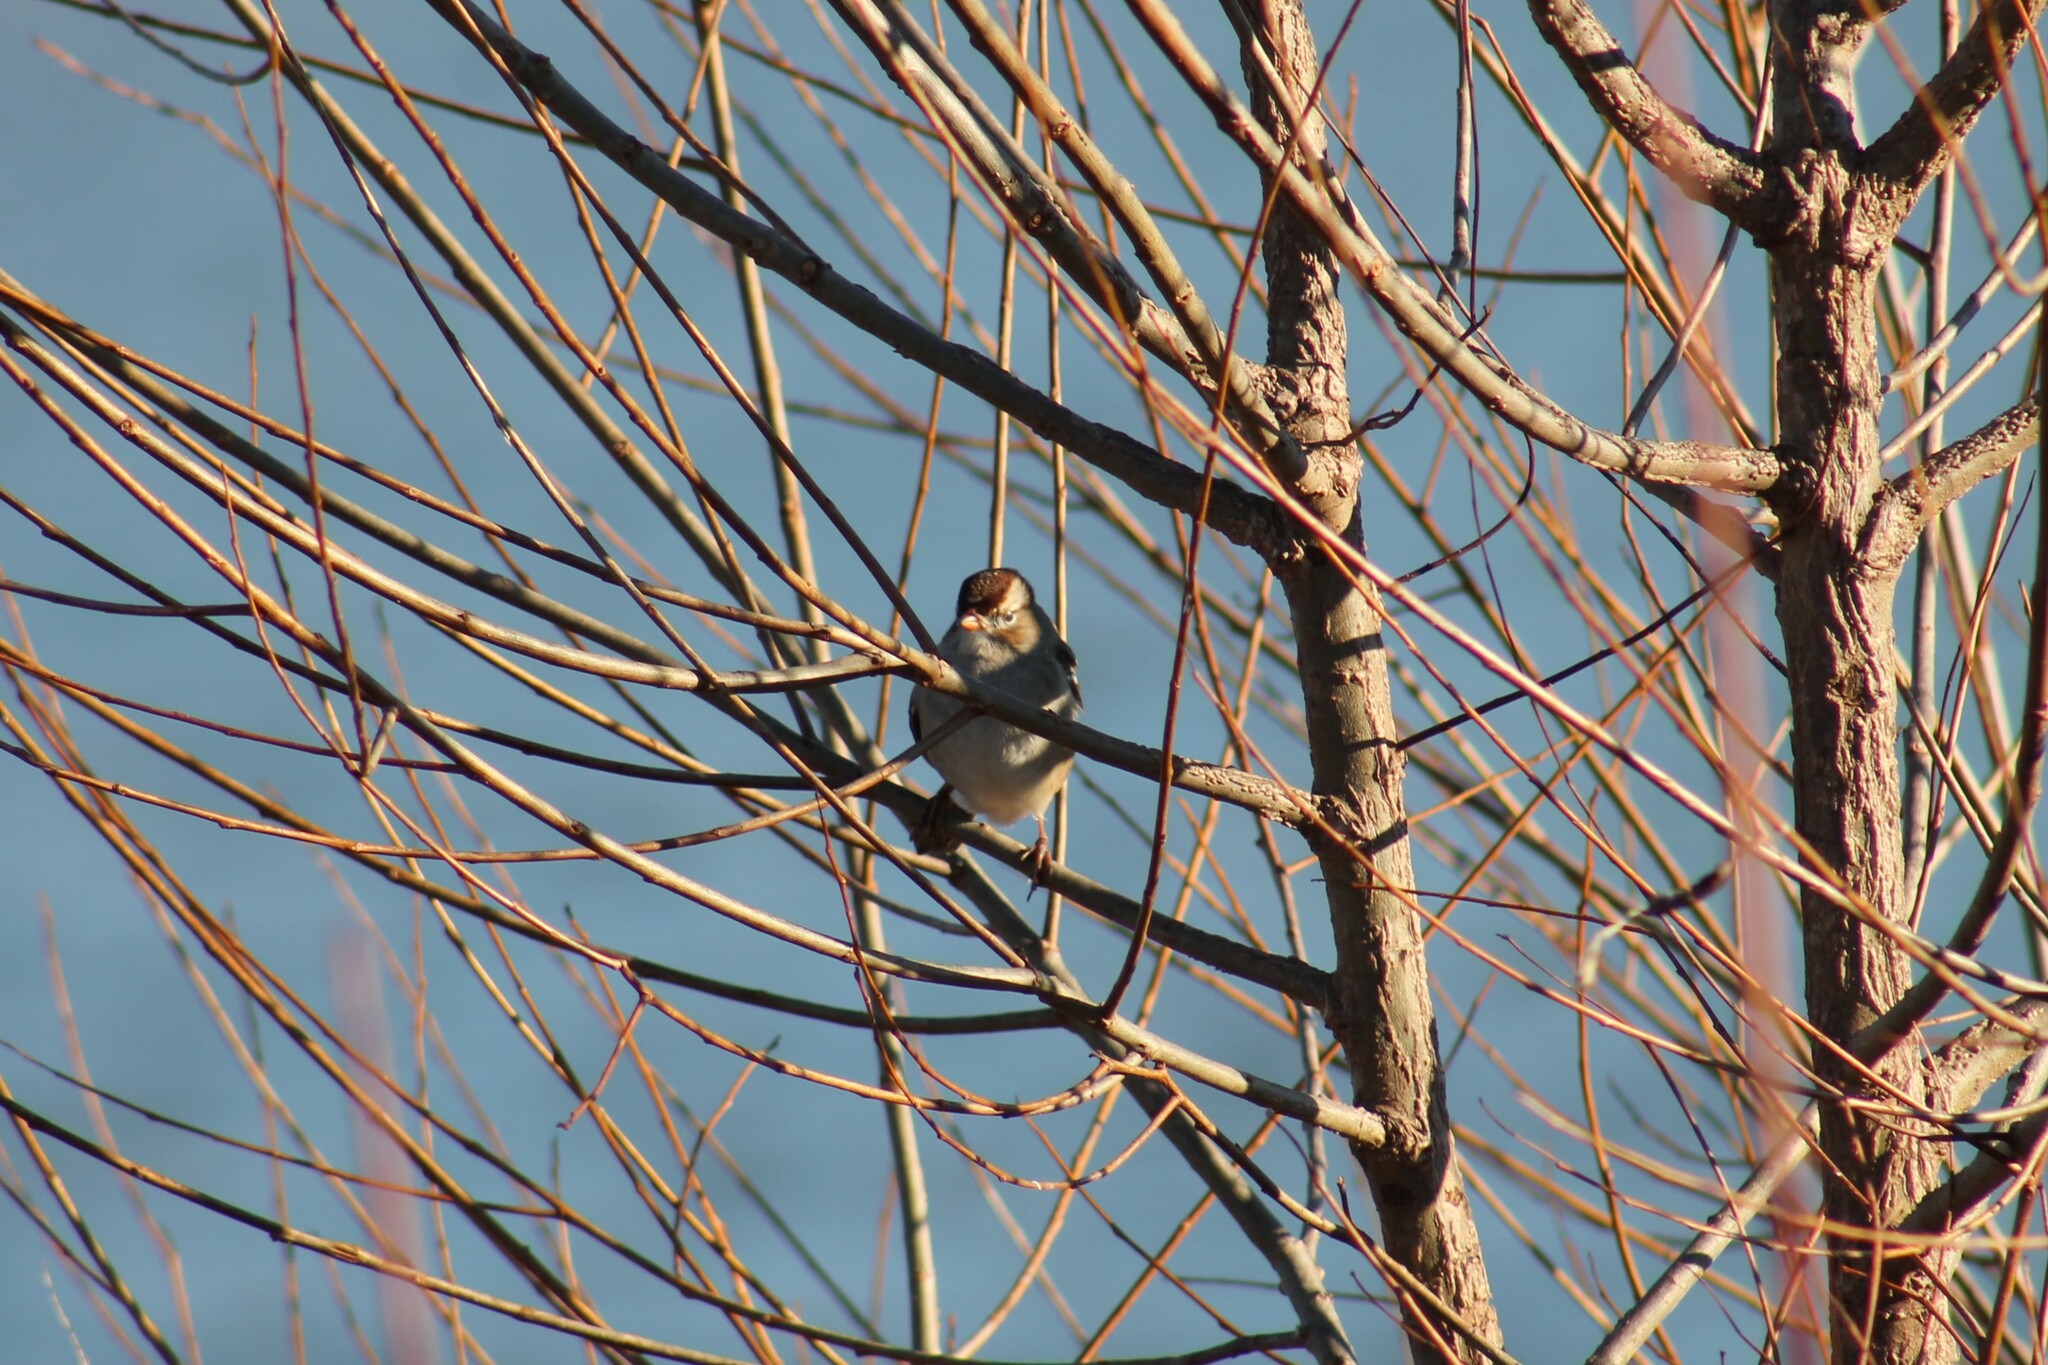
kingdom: Animalia
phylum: Chordata
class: Aves
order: Passeriformes
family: Passerellidae
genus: Zonotrichia
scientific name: Zonotrichia leucophrys
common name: White-crowned sparrow
